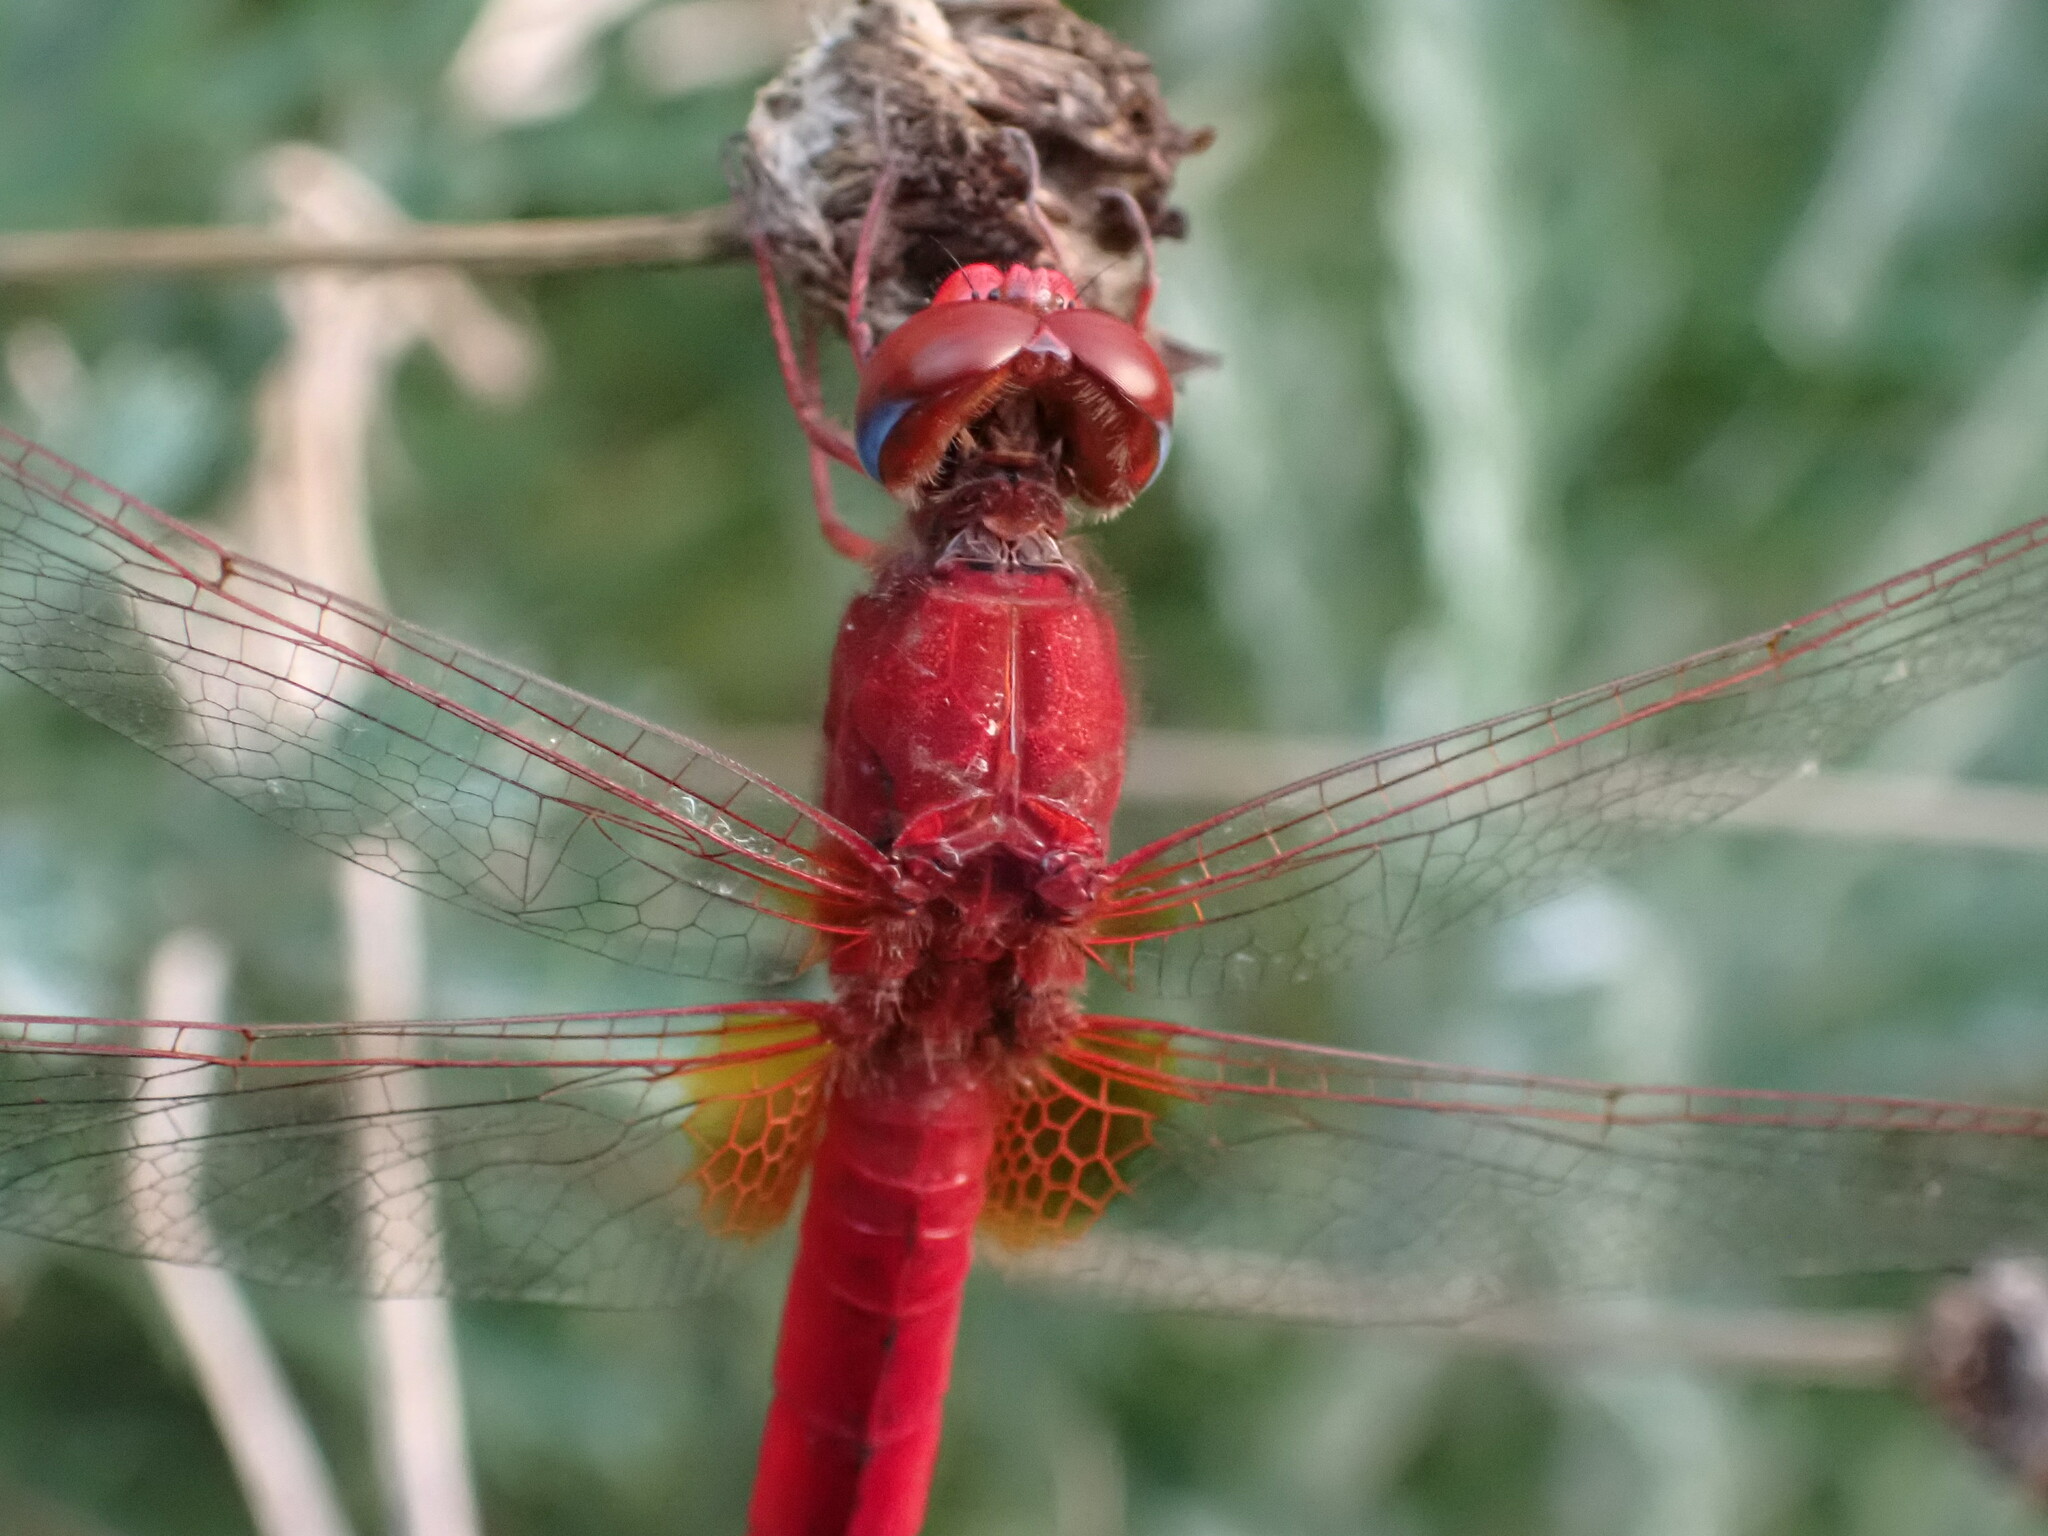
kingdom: Animalia
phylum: Arthropoda
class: Insecta
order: Odonata
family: Libellulidae
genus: Crocothemis
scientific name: Crocothemis erythraea
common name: Scarlet dragonfly
